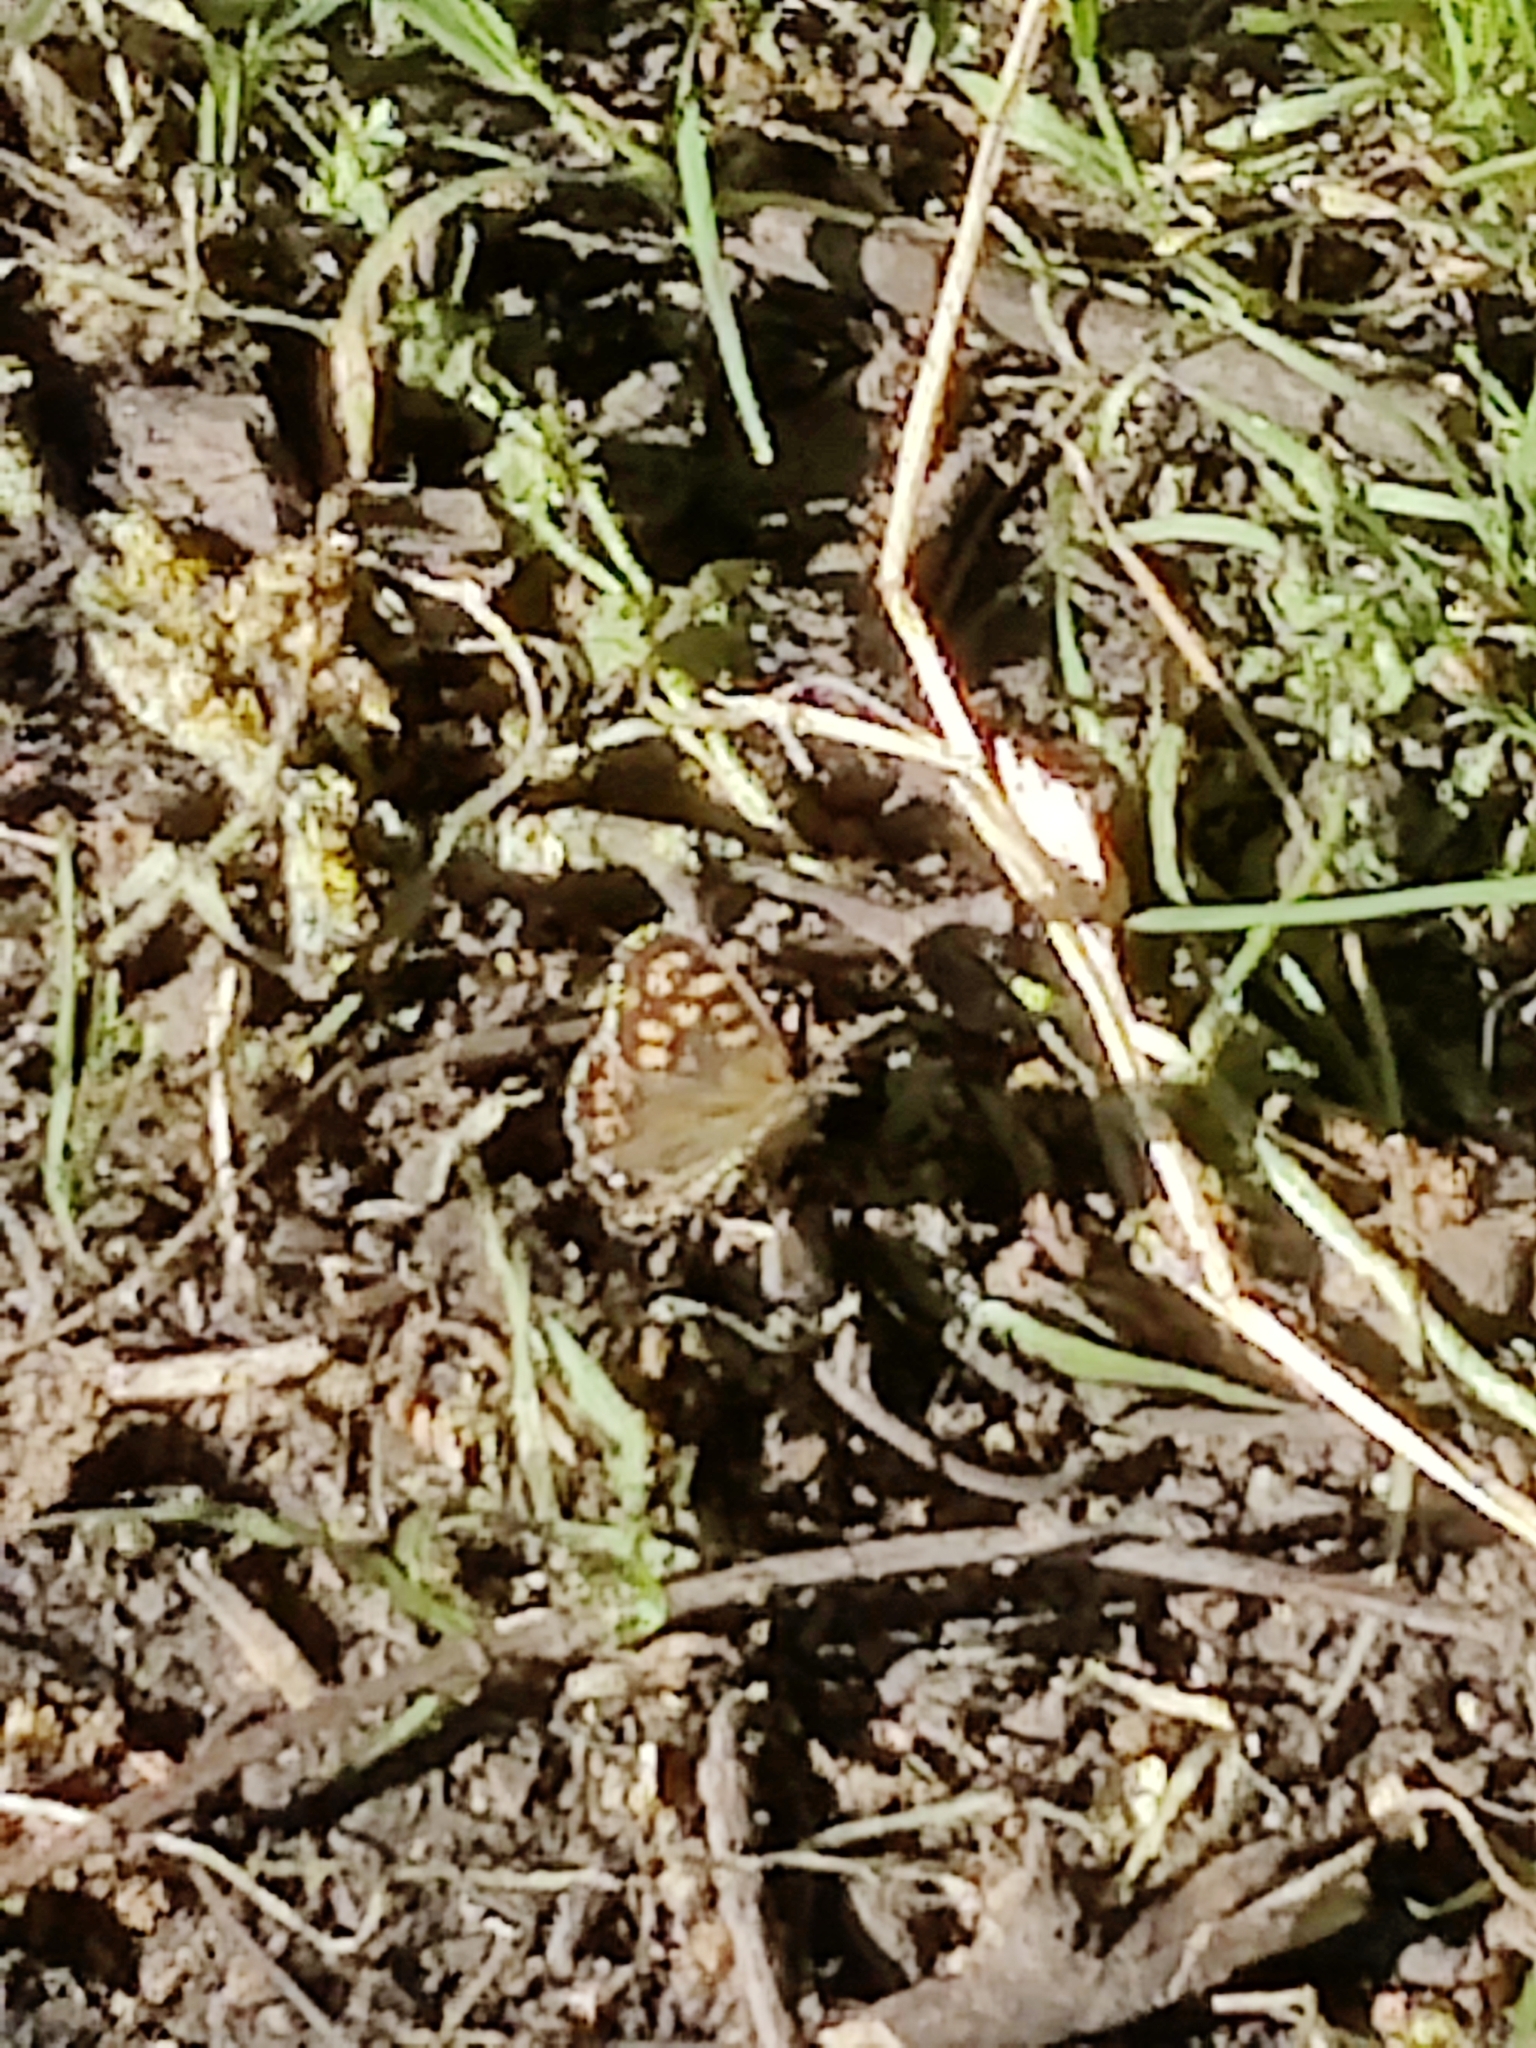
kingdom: Animalia
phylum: Arthropoda
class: Insecta
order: Lepidoptera
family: Nymphalidae
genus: Pararge
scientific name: Pararge aegeria
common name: Speckled wood
